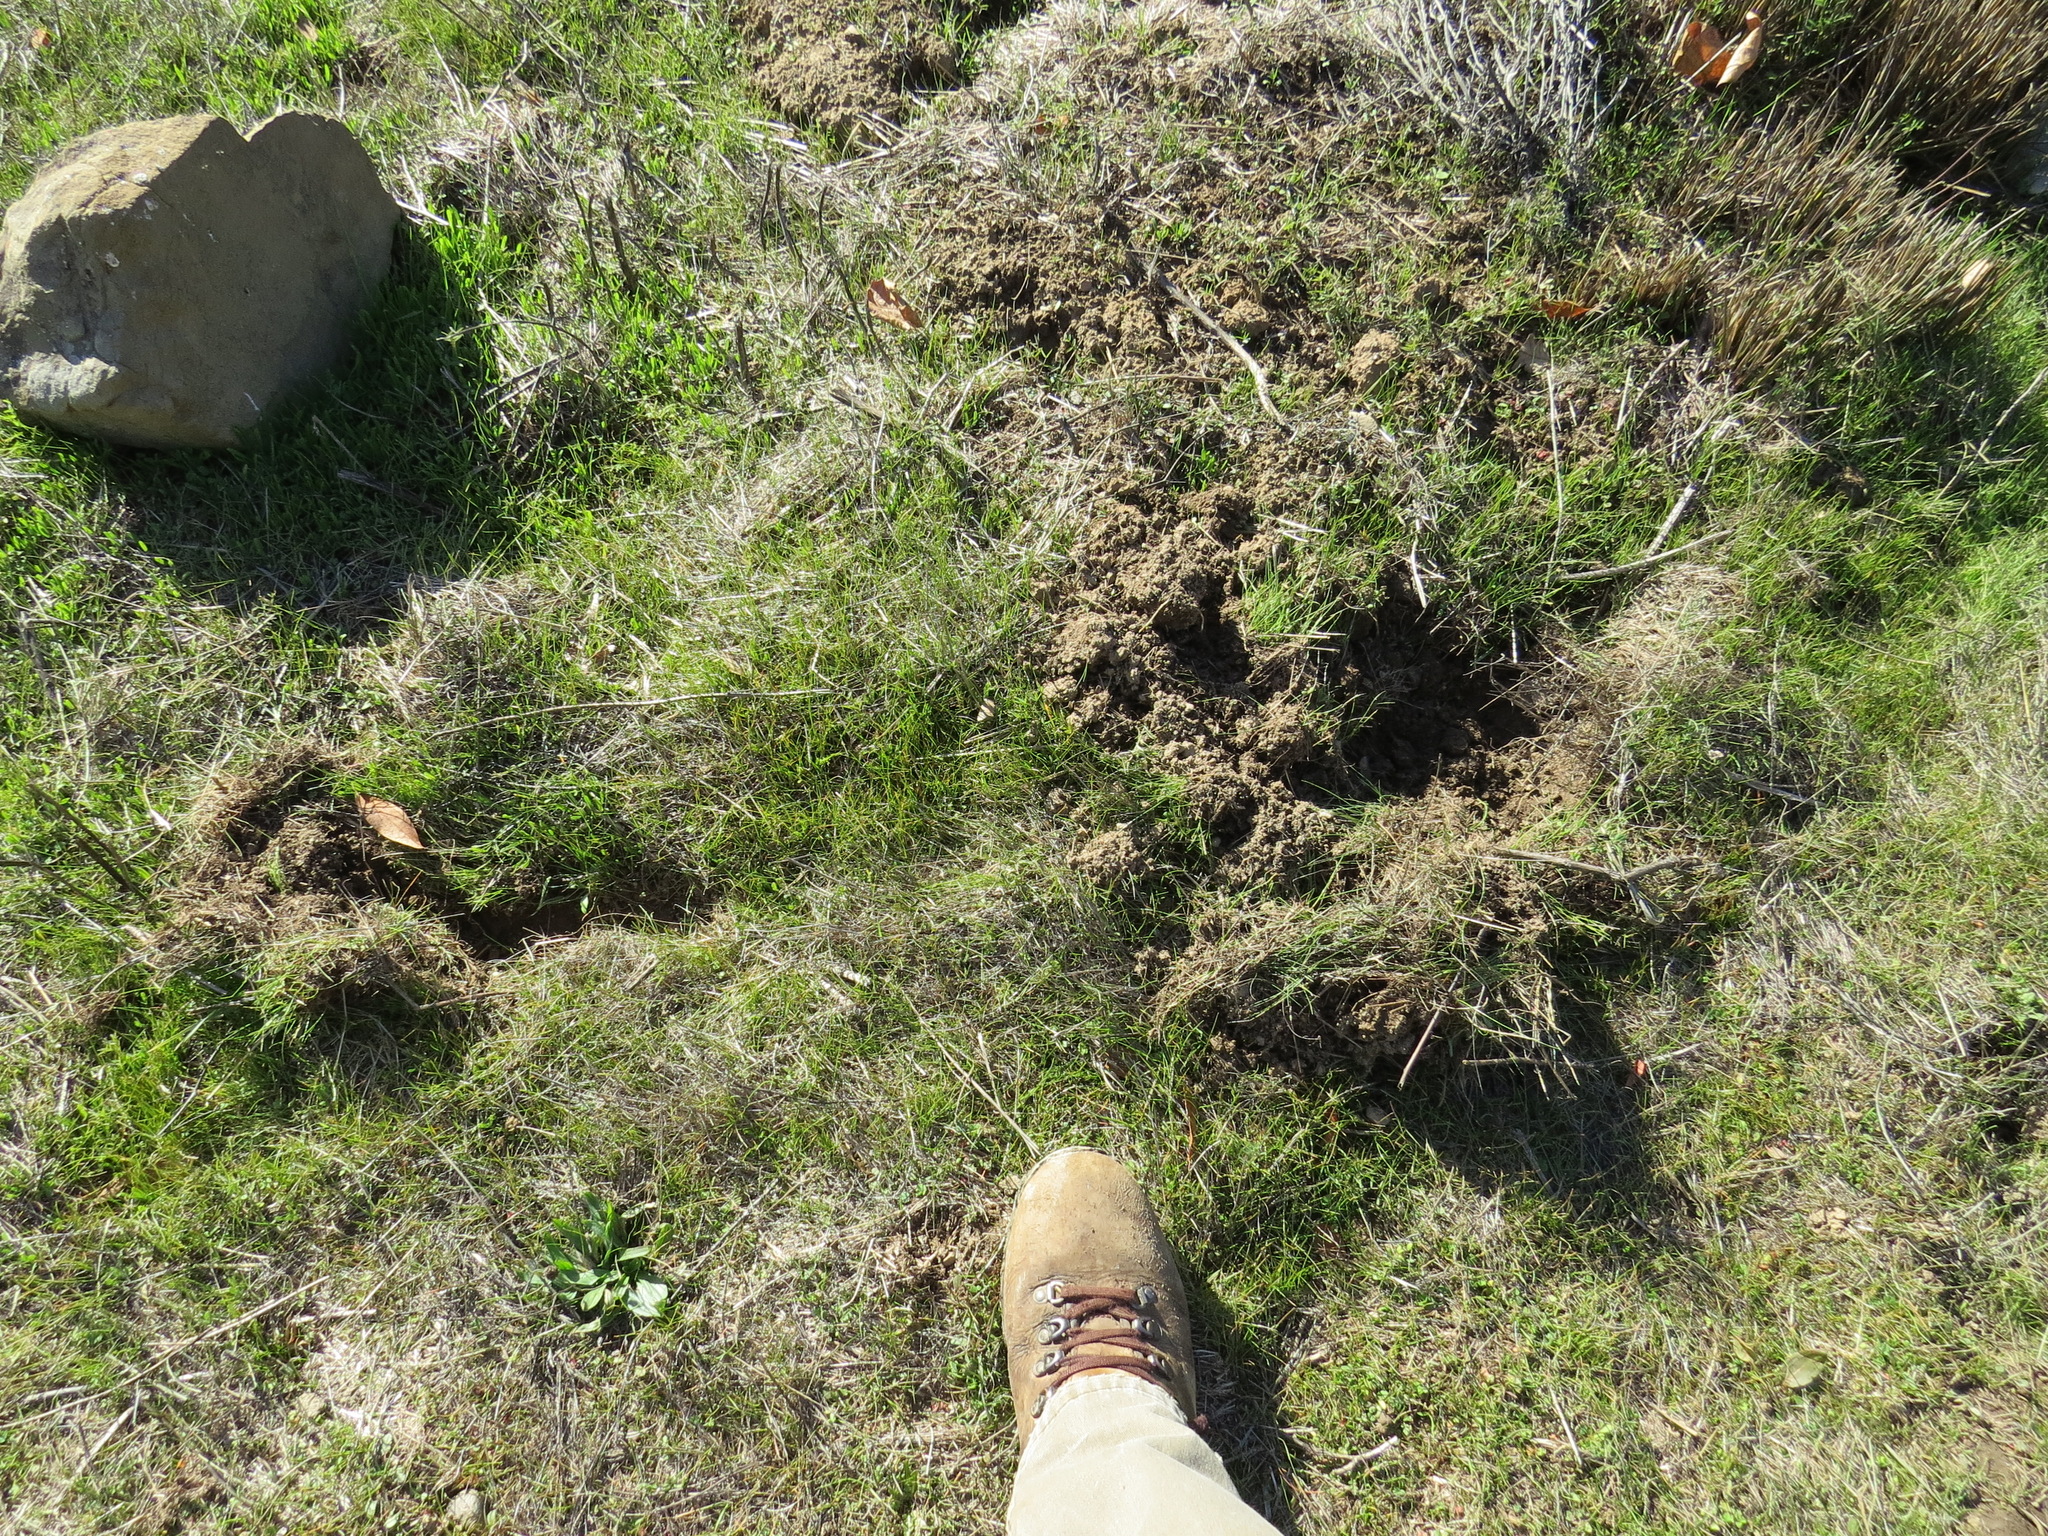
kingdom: Animalia
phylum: Chordata
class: Mammalia
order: Artiodactyla
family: Suidae
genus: Sus
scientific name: Sus scrofa
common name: Wild boar
